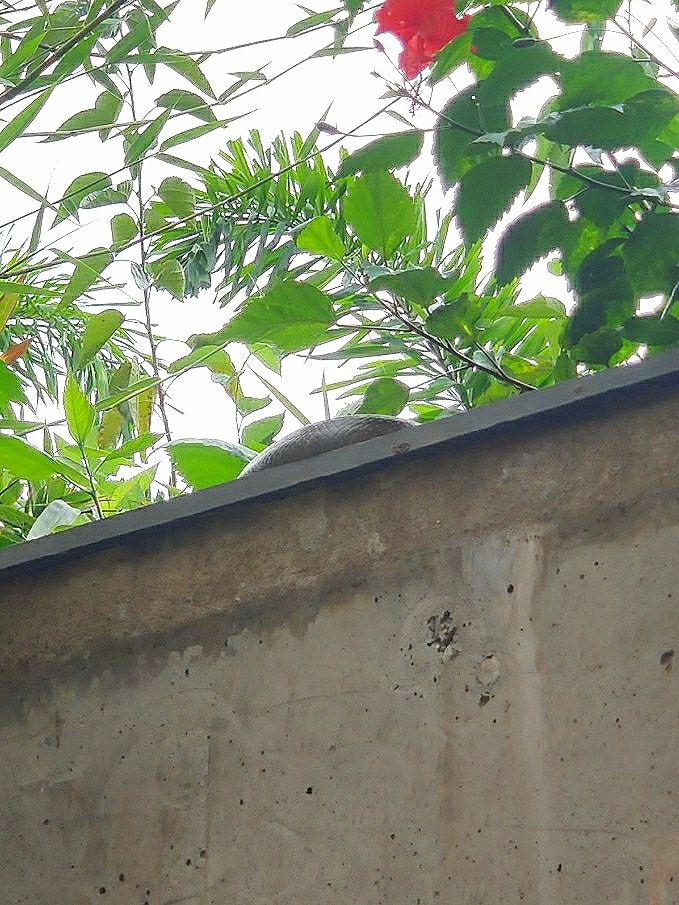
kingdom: Animalia
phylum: Chordata
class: Squamata
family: Colubridae
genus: Ptyas
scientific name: Ptyas mucosa
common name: Oriental ratsnake
